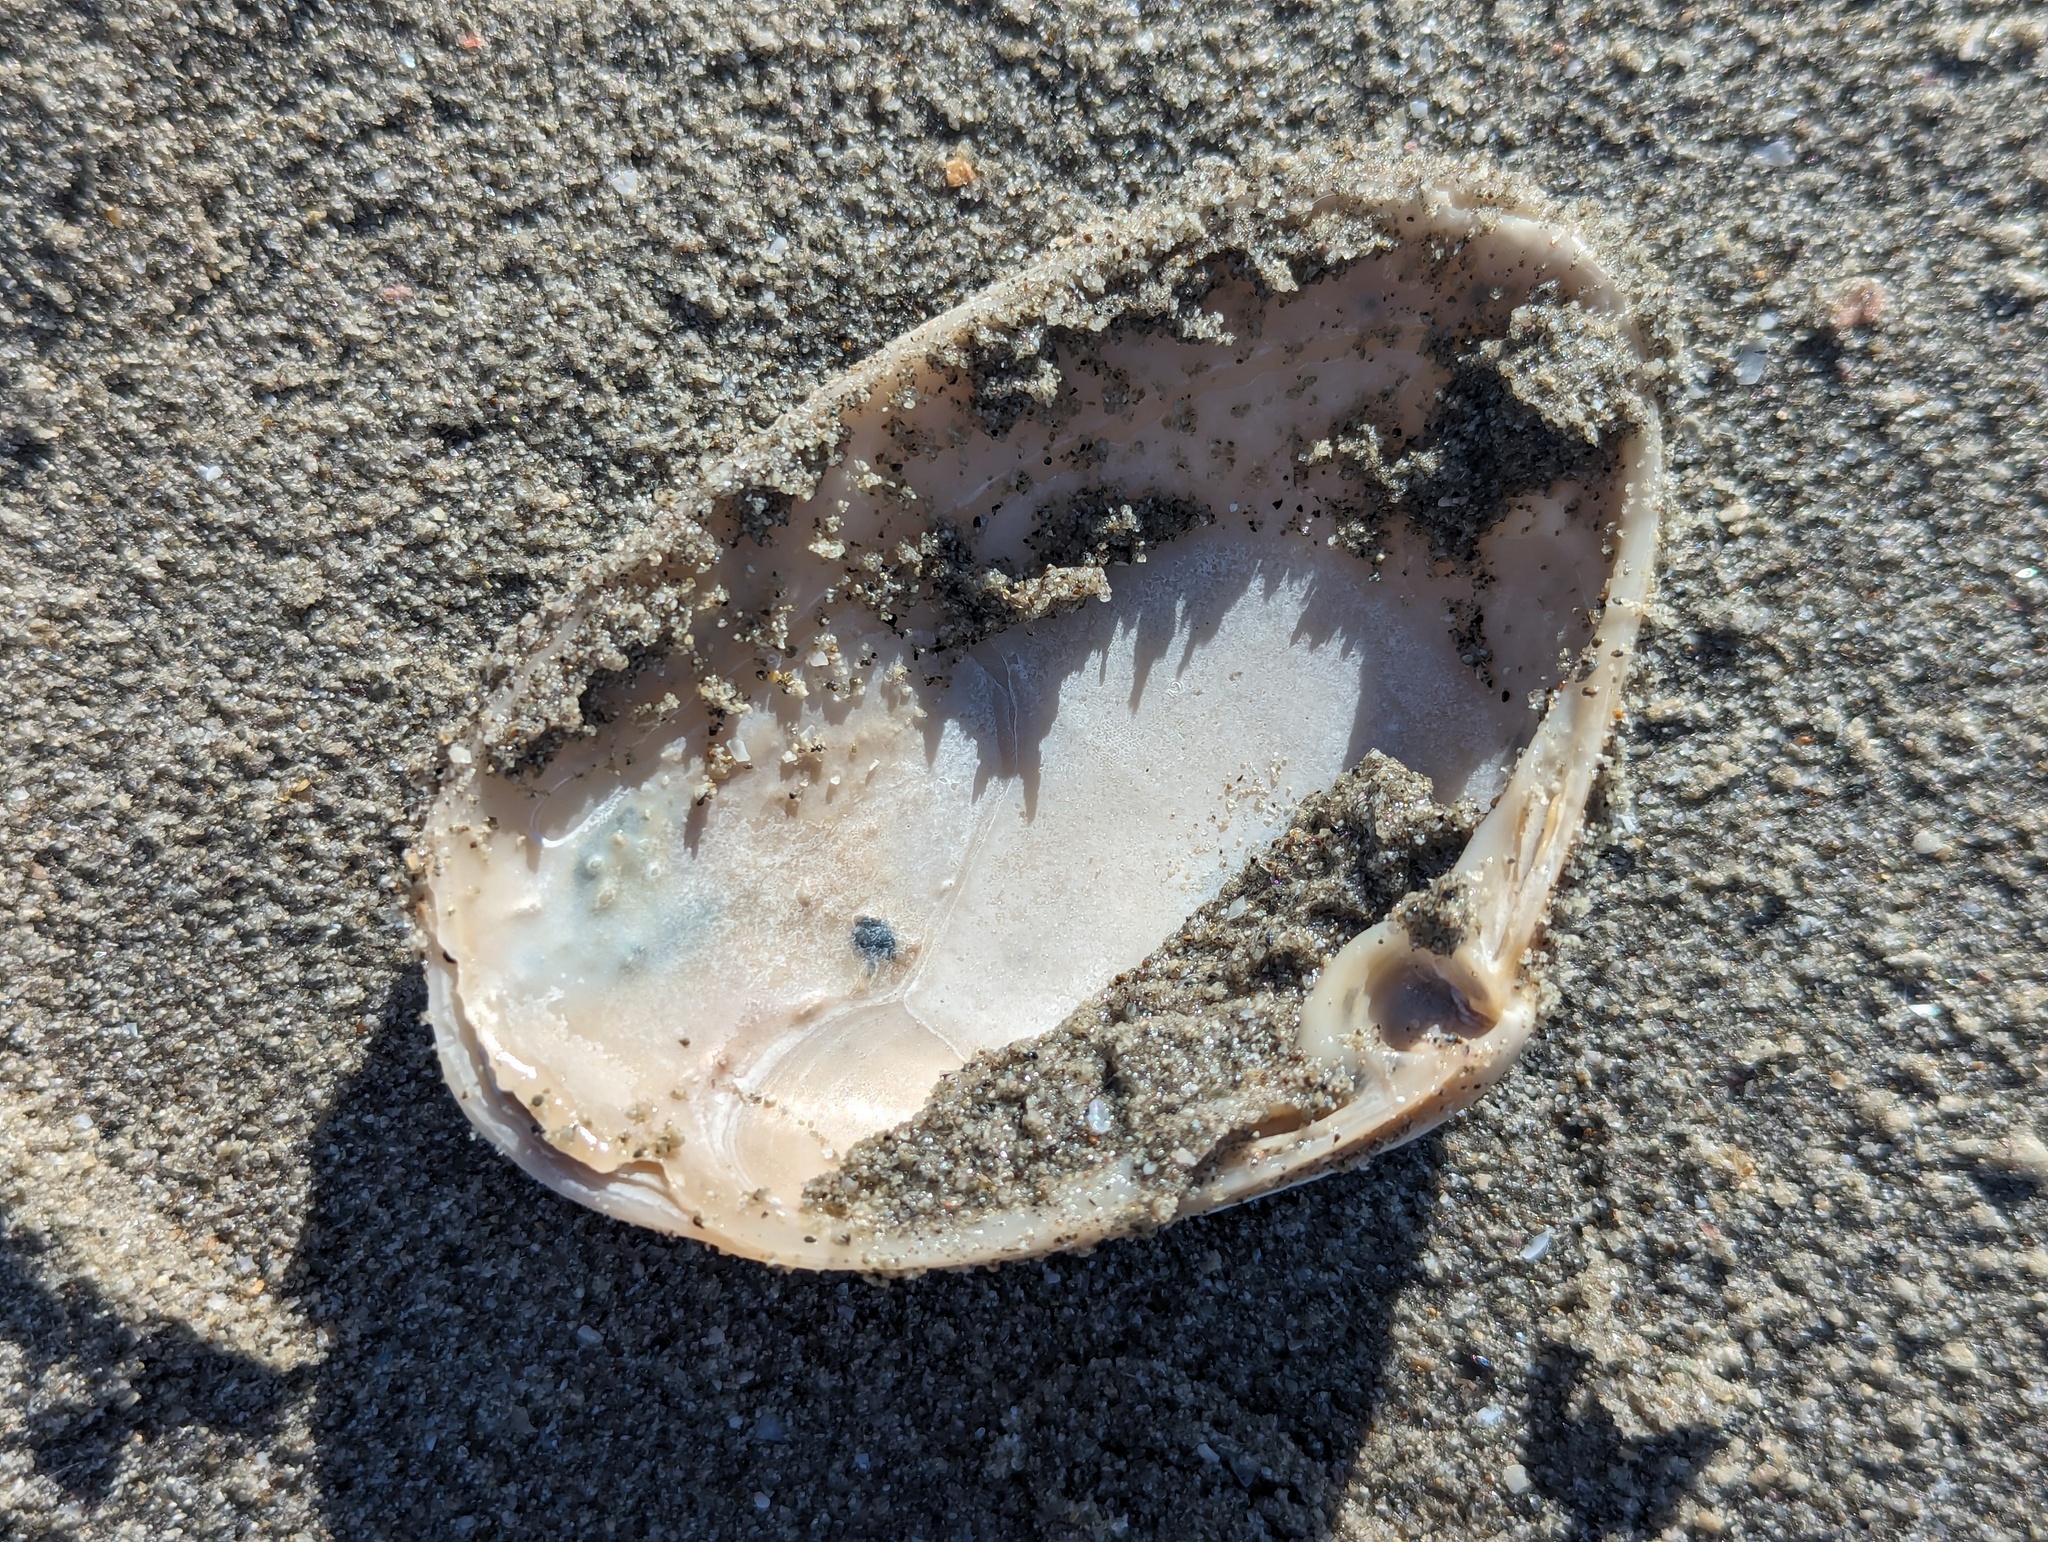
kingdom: Animalia
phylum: Mollusca
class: Bivalvia
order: Venerida
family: Mactridae
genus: Oxyperas
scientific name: Oxyperas elongatum
